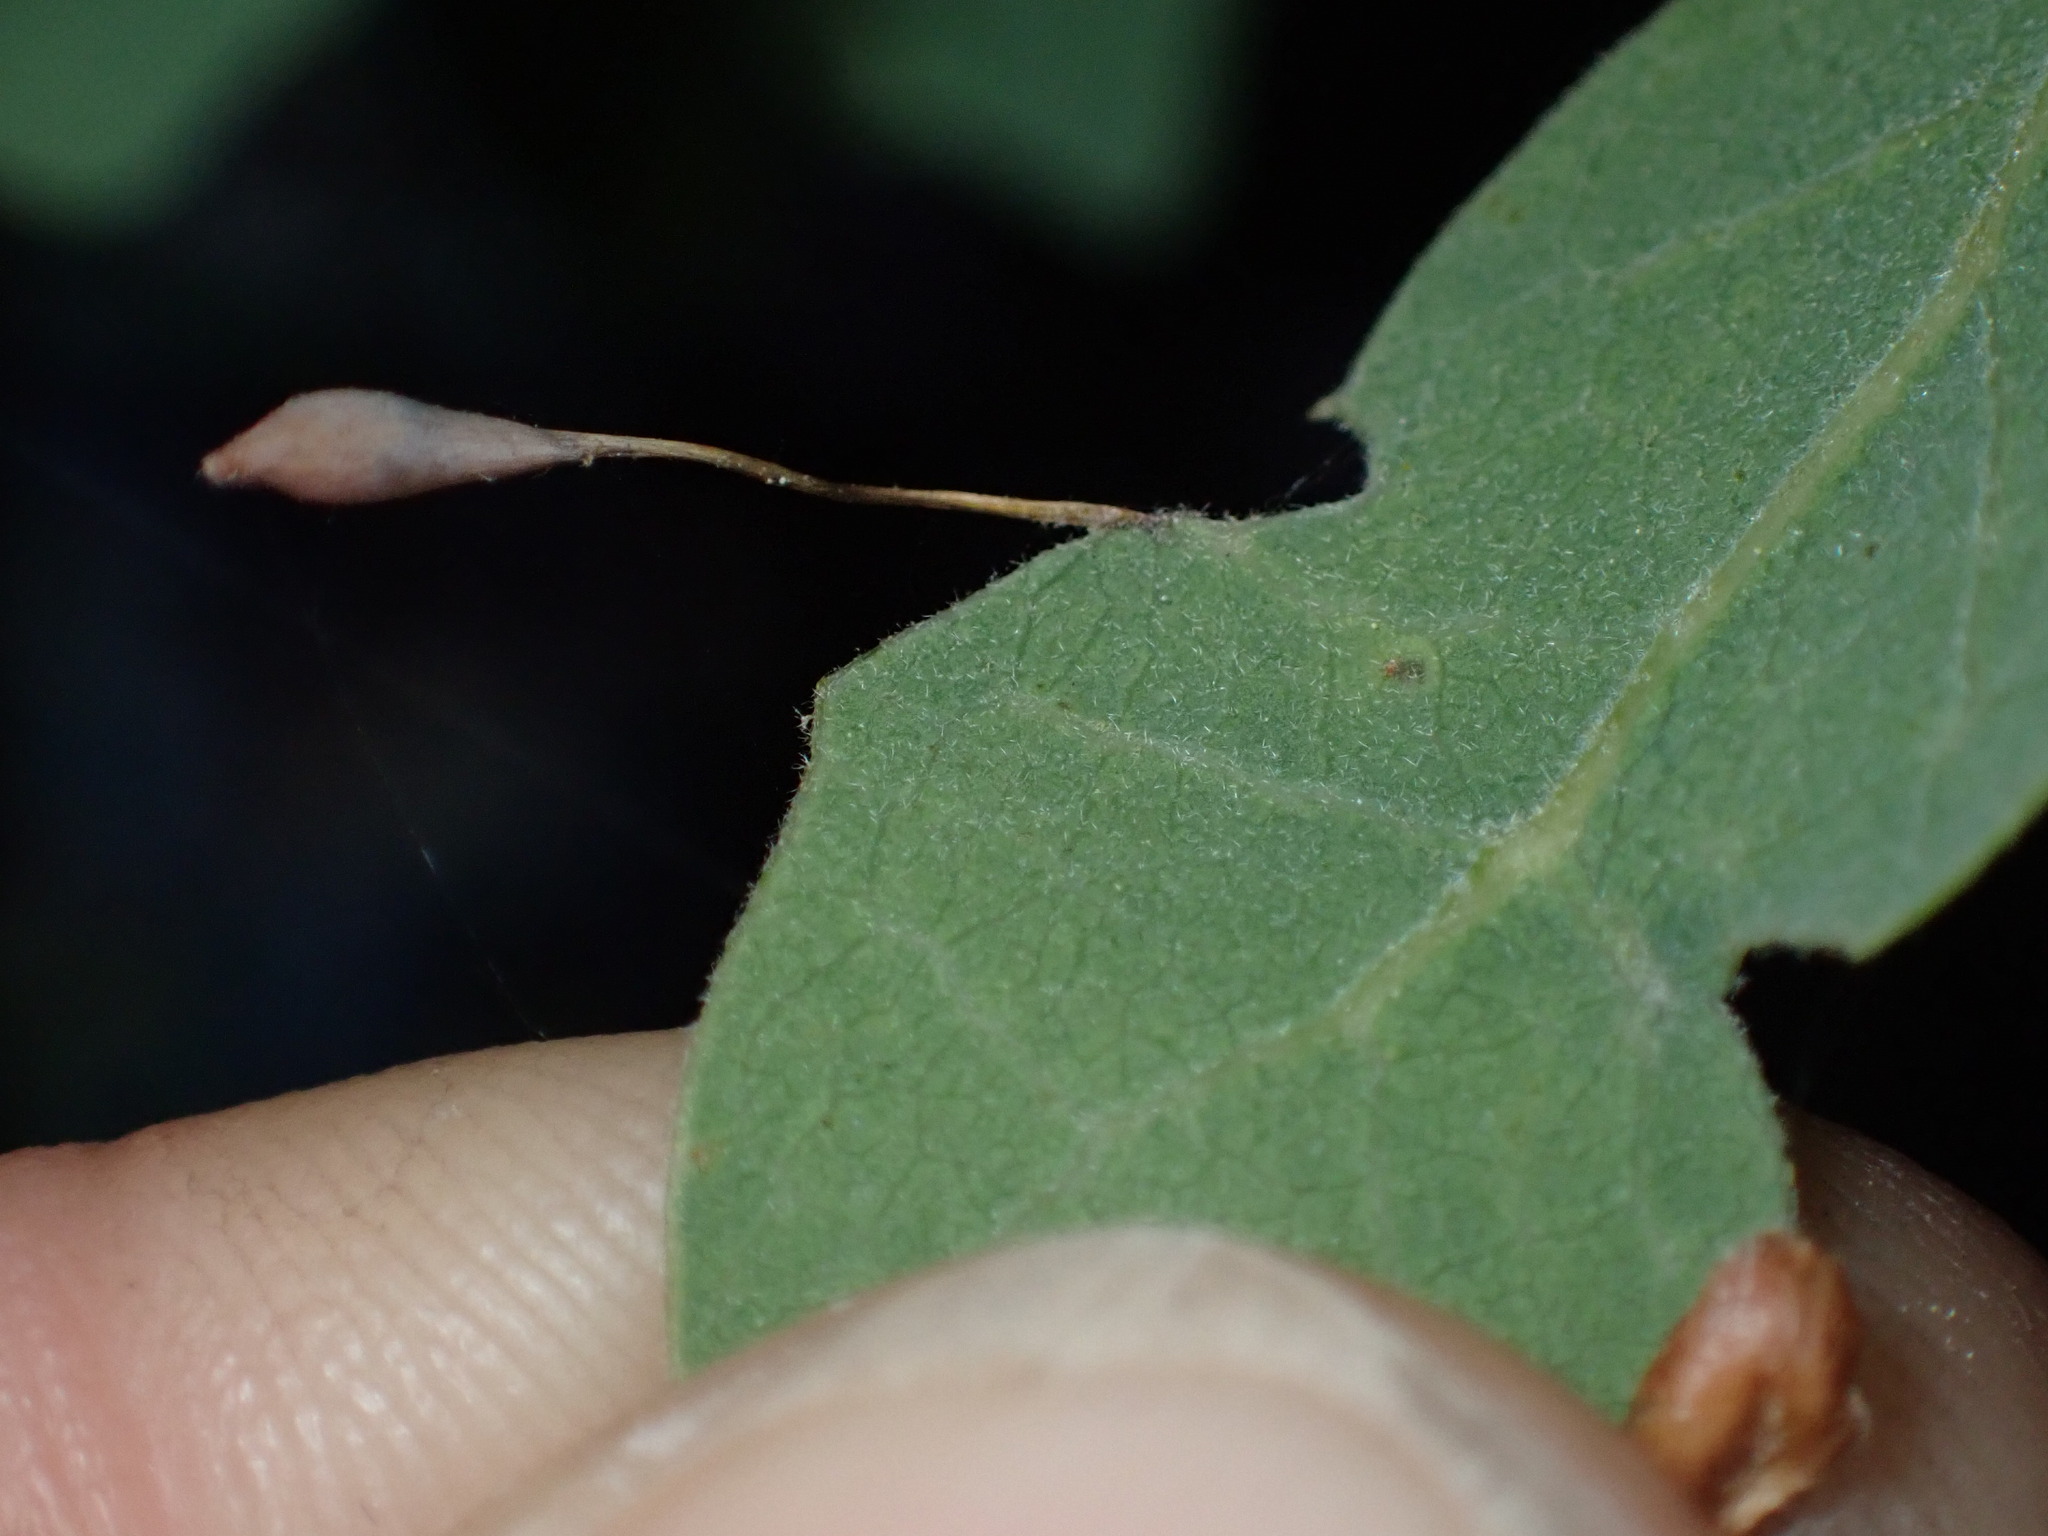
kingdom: Animalia
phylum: Arthropoda
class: Insecta
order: Hymenoptera
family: Cynipidae
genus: Andricus
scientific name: Andricus
